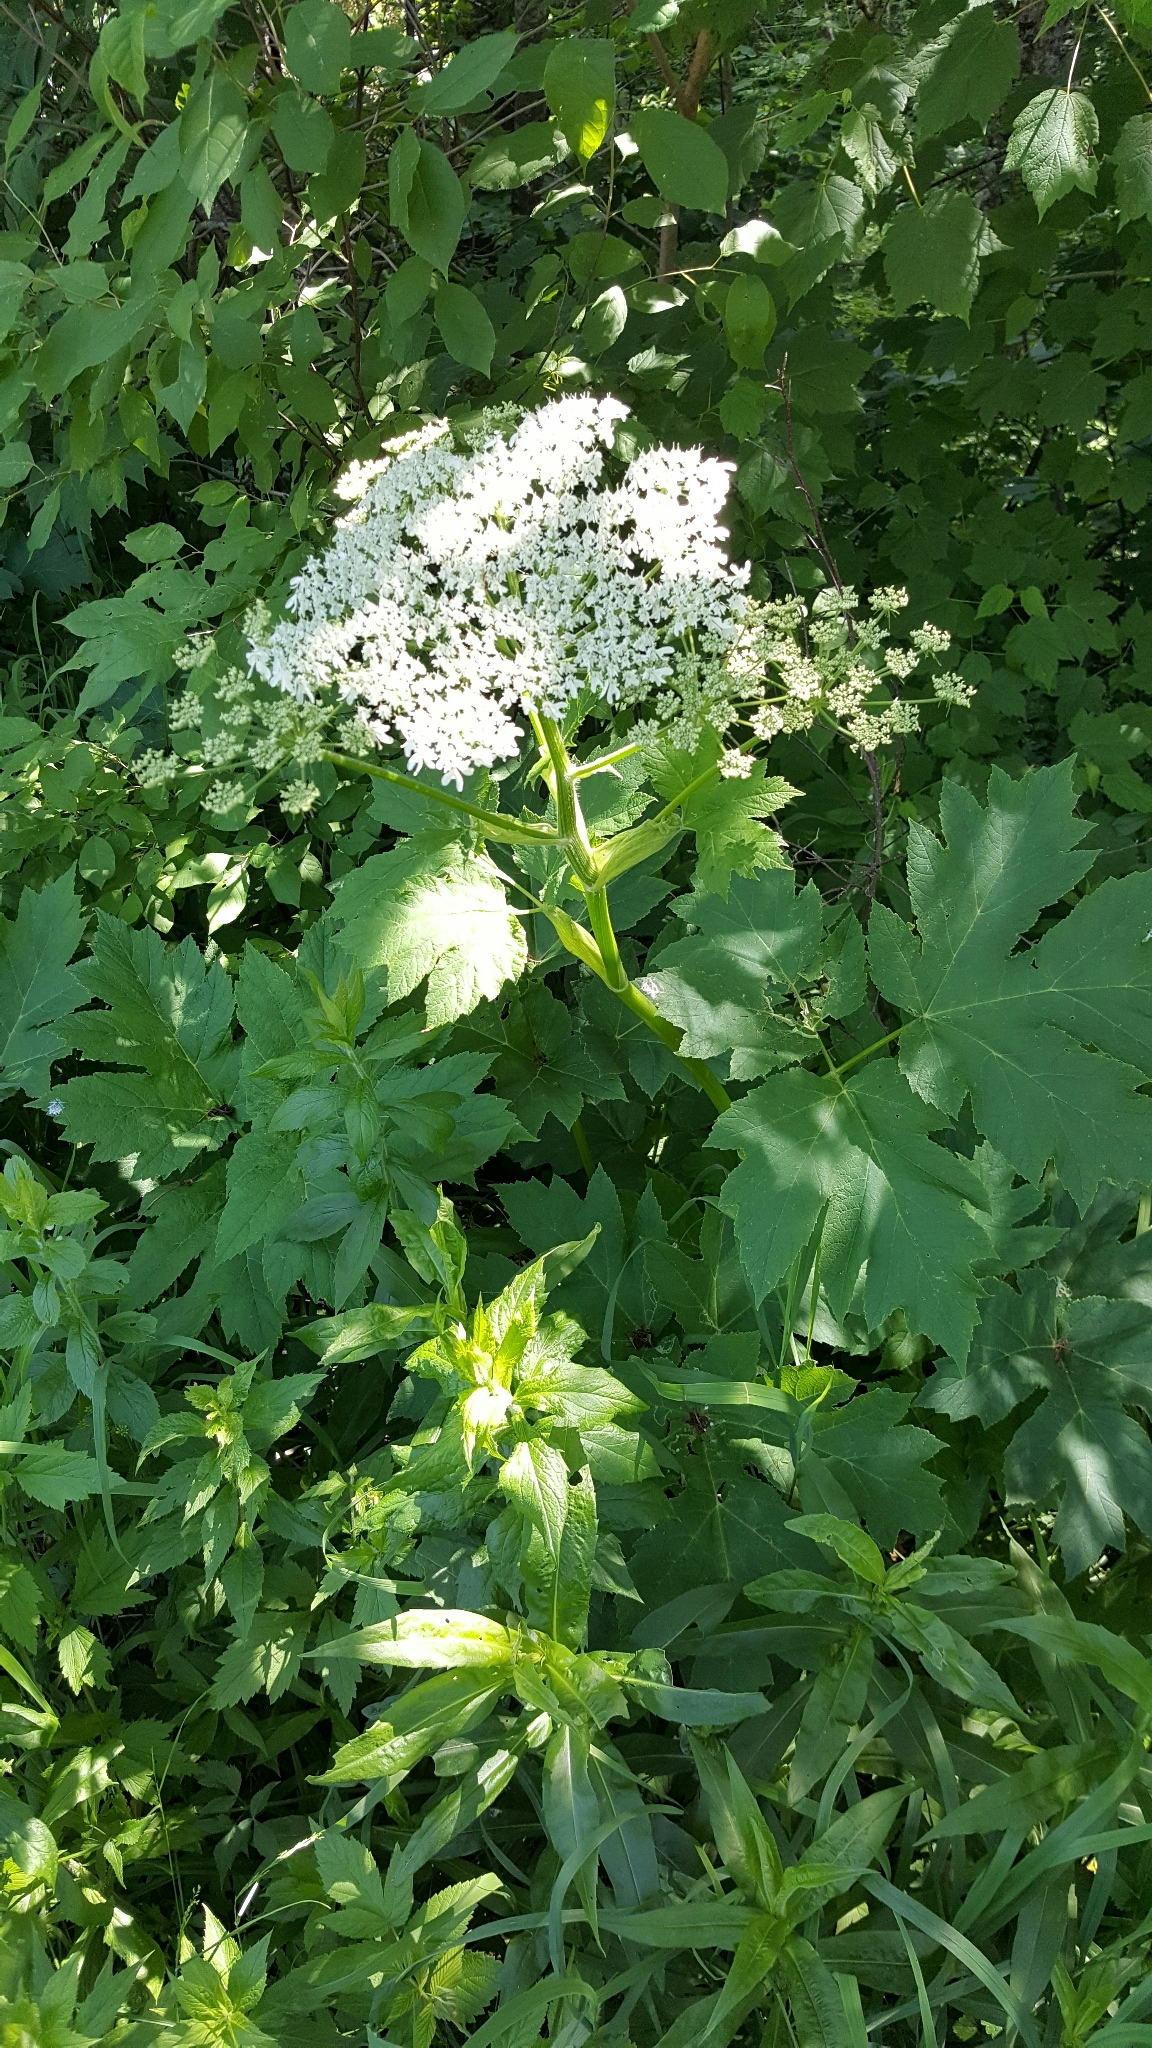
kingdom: Plantae
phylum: Tracheophyta
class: Magnoliopsida
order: Apiales
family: Apiaceae
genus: Heracleum
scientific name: Heracleum maximum
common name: American cow parsnip
